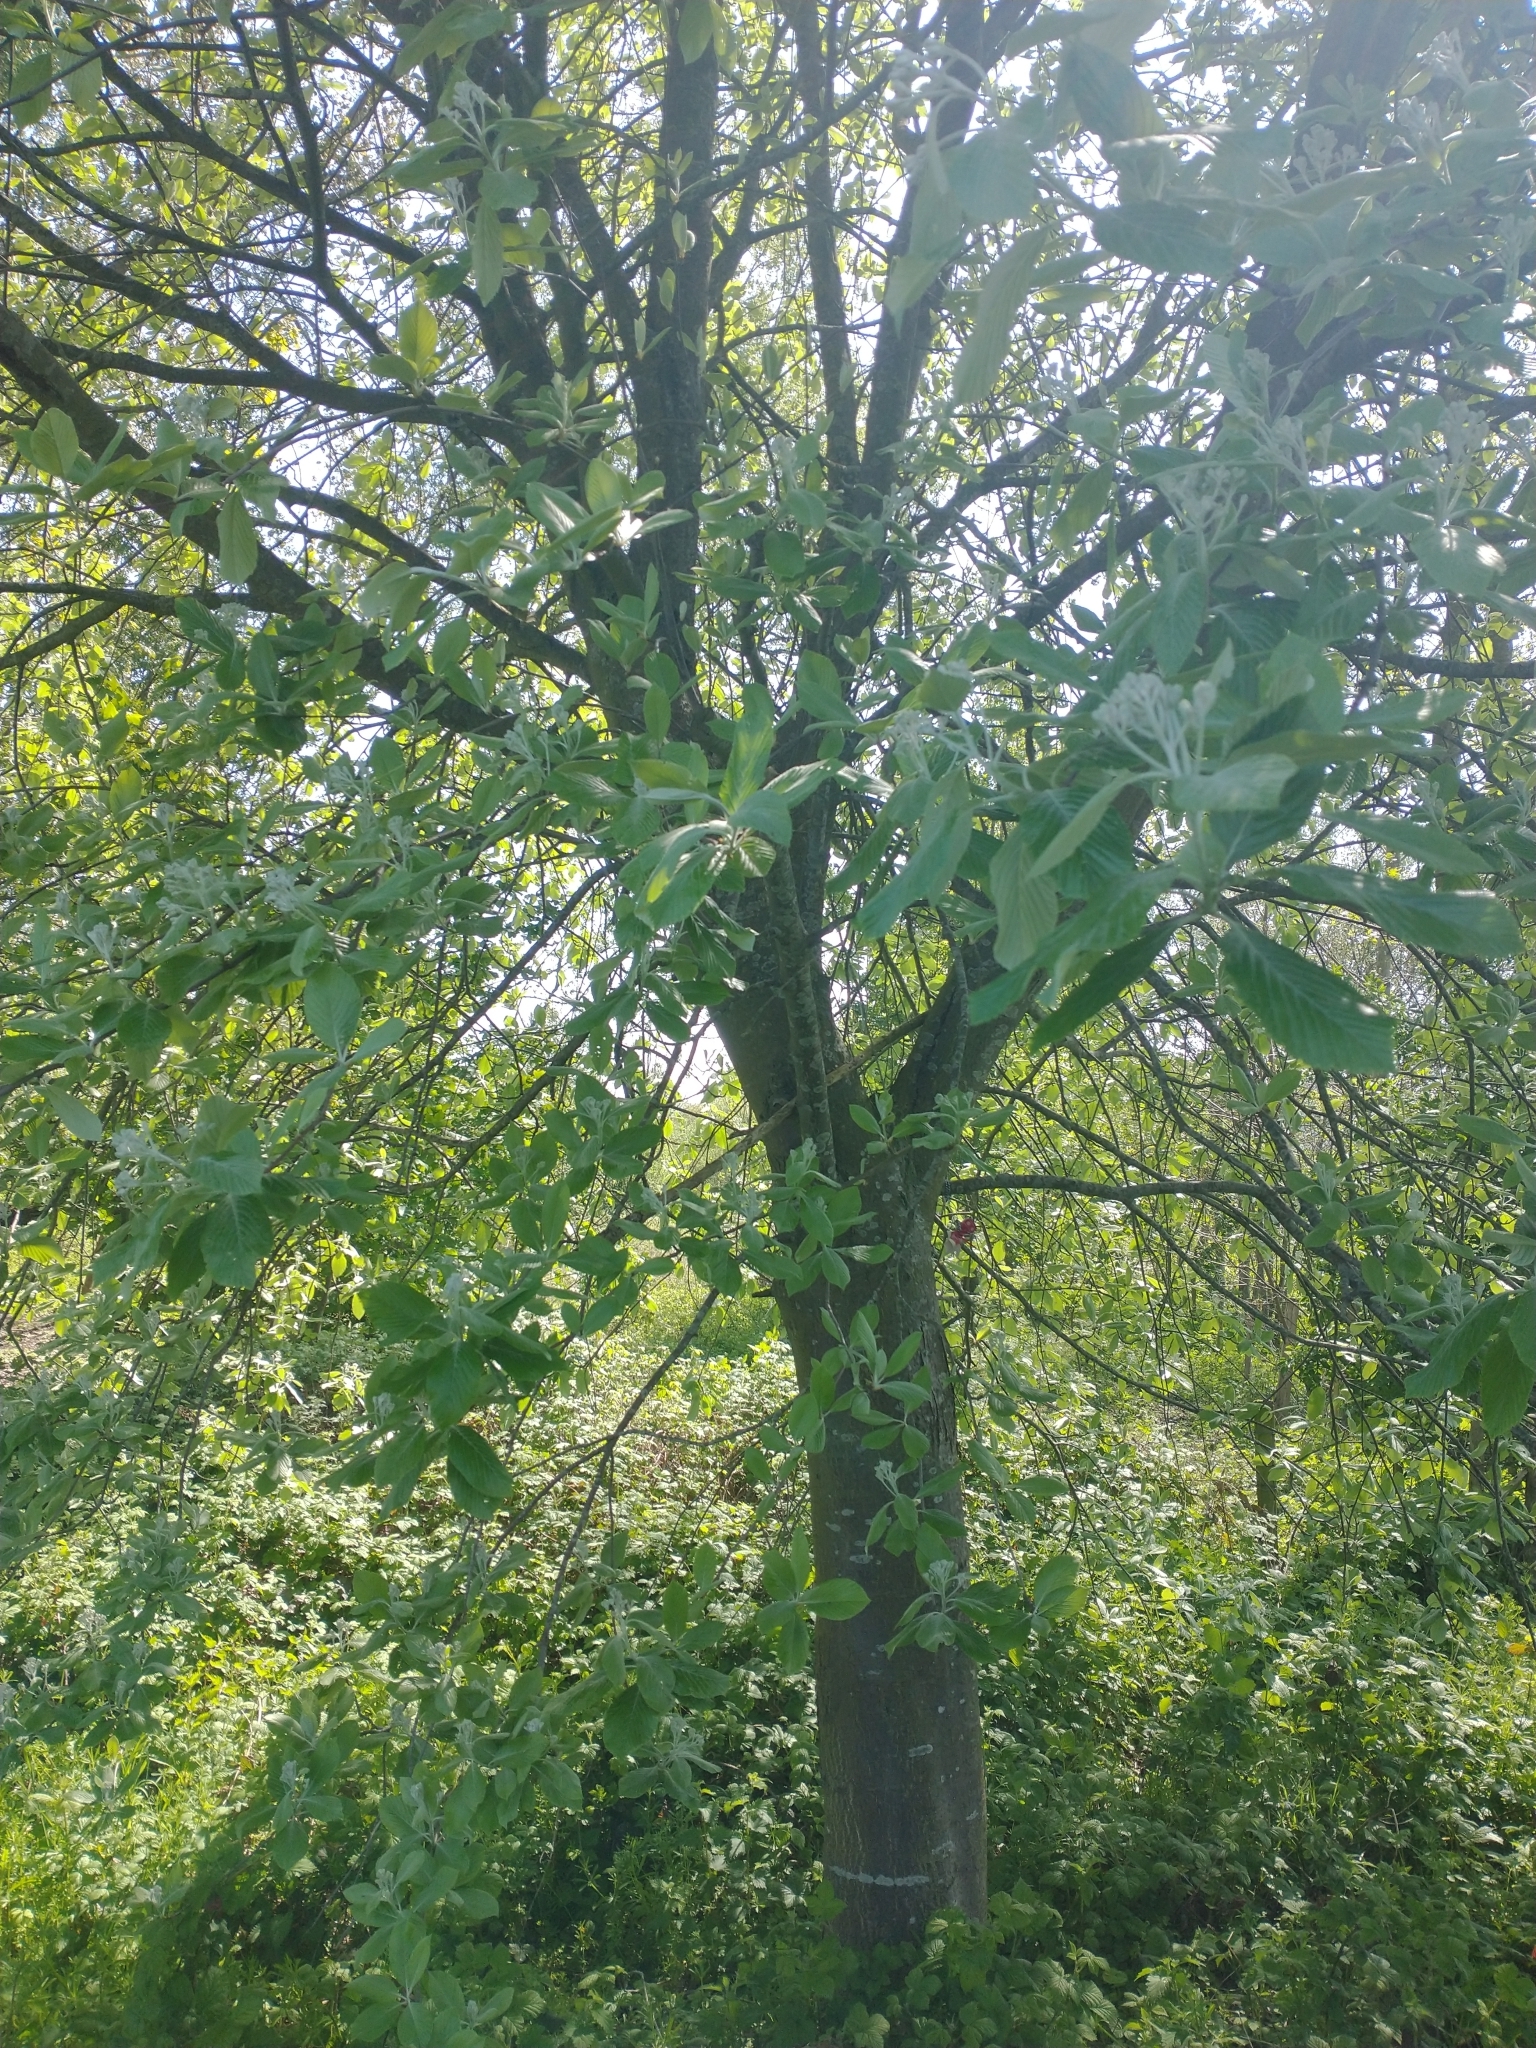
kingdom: Plantae
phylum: Tracheophyta
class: Magnoliopsida
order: Rosales
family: Rosaceae
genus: Aria
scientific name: Aria edulis
